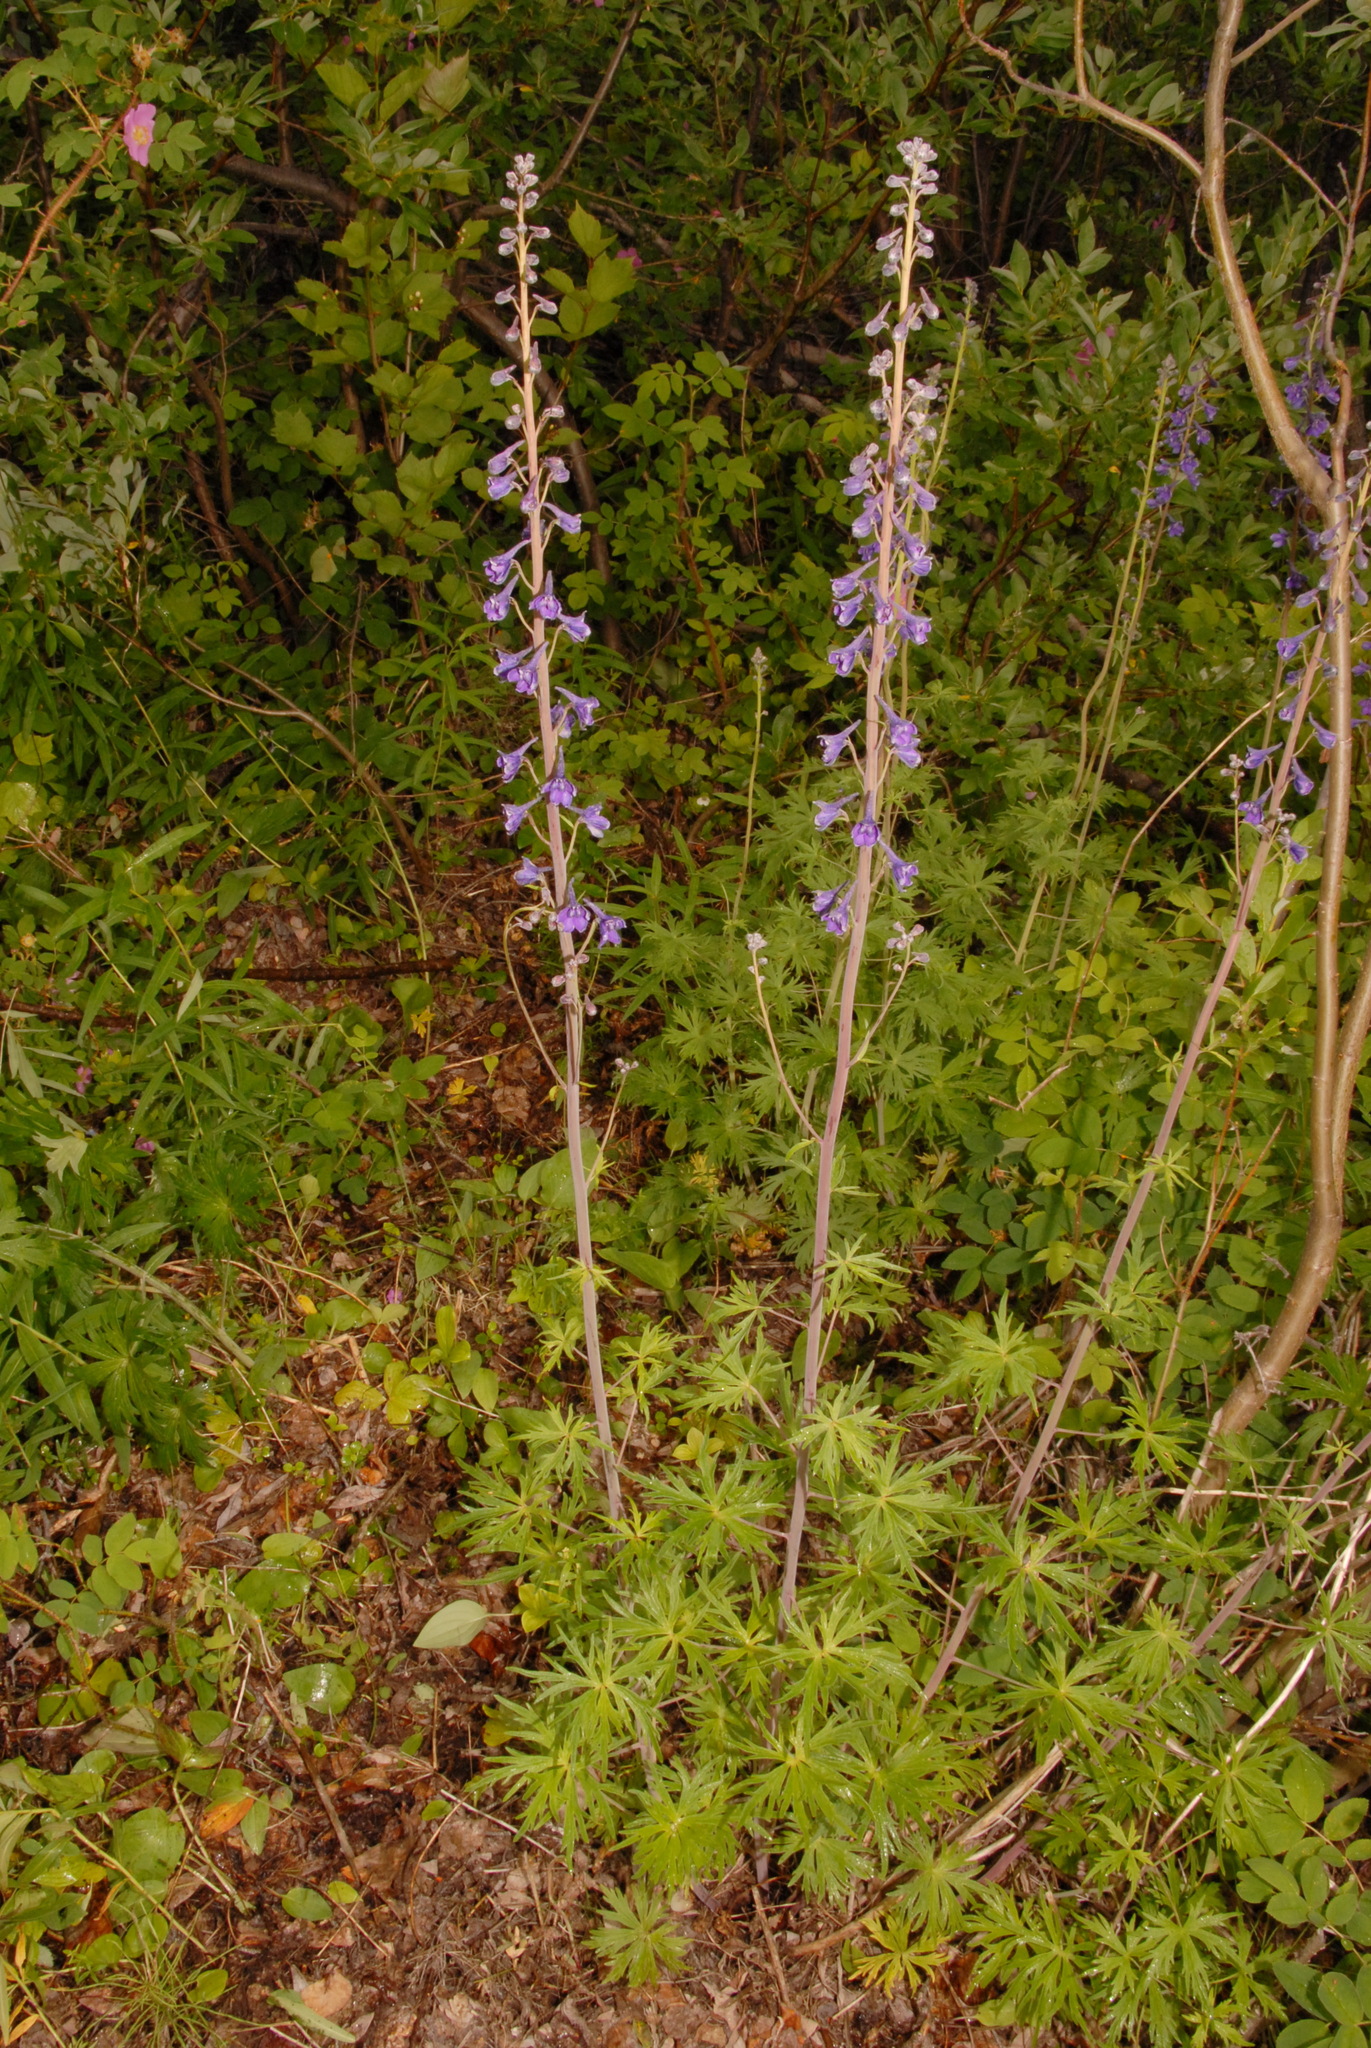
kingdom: Plantae
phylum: Tracheophyta
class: Magnoliopsida
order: Ranunculales
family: Ranunculaceae
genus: Delphinium
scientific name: Delphinium glaucum
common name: Brown's larkspur
